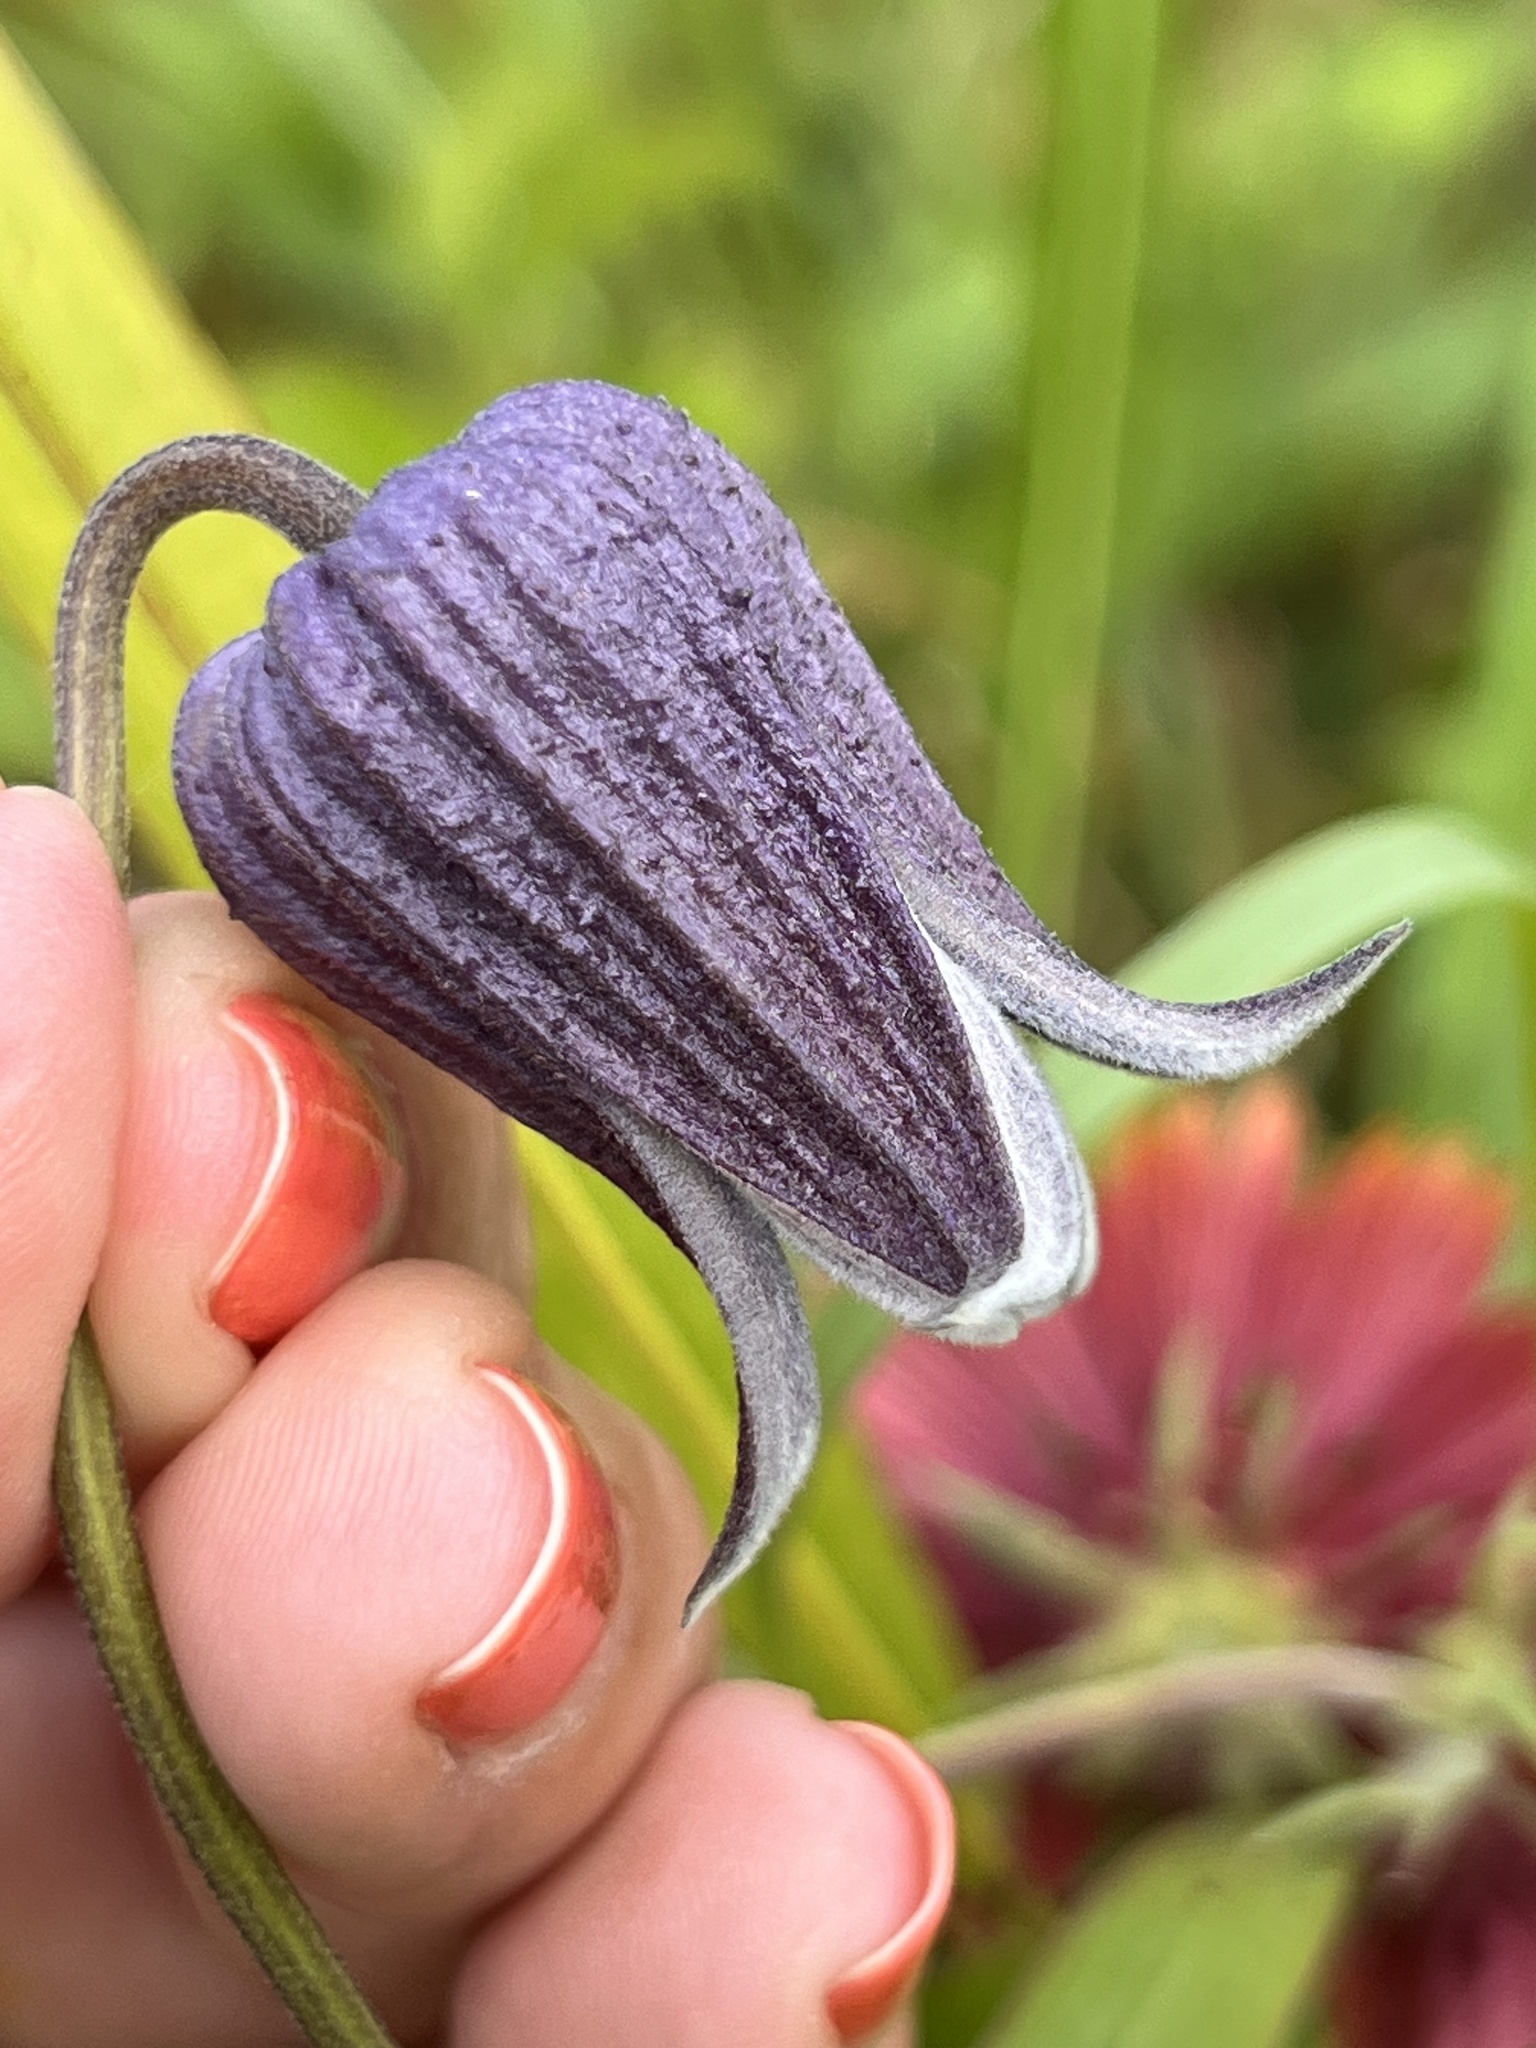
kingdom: Plantae
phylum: Tracheophyta
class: Magnoliopsida
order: Ranunculales
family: Ranunculaceae
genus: Clematis
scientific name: Clematis pitcheri
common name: Bellflower clematis
